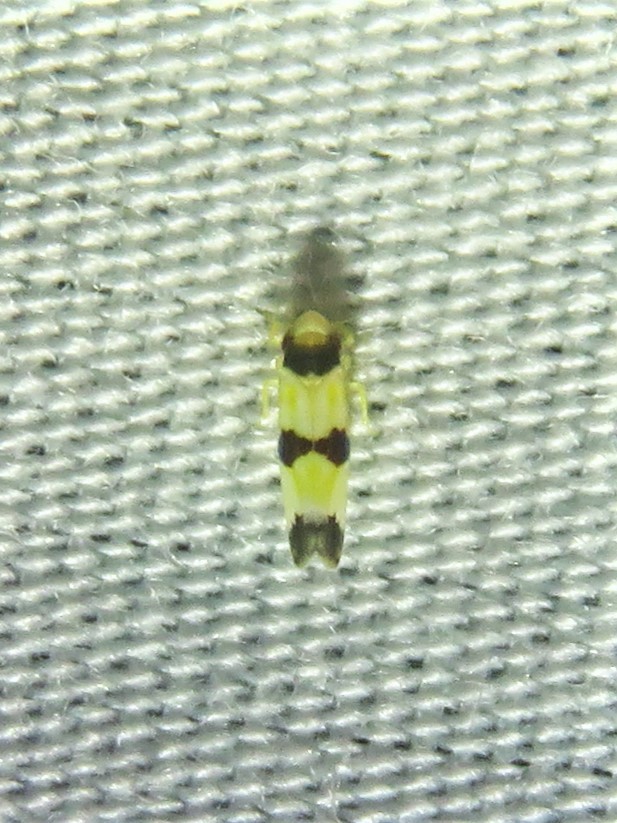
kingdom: Animalia
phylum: Arthropoda
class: Insecta
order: Hemiptera
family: Cicadellidae
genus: Erythroneura
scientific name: Erythroneura tricincta
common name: The threebanded grape leafhopper
